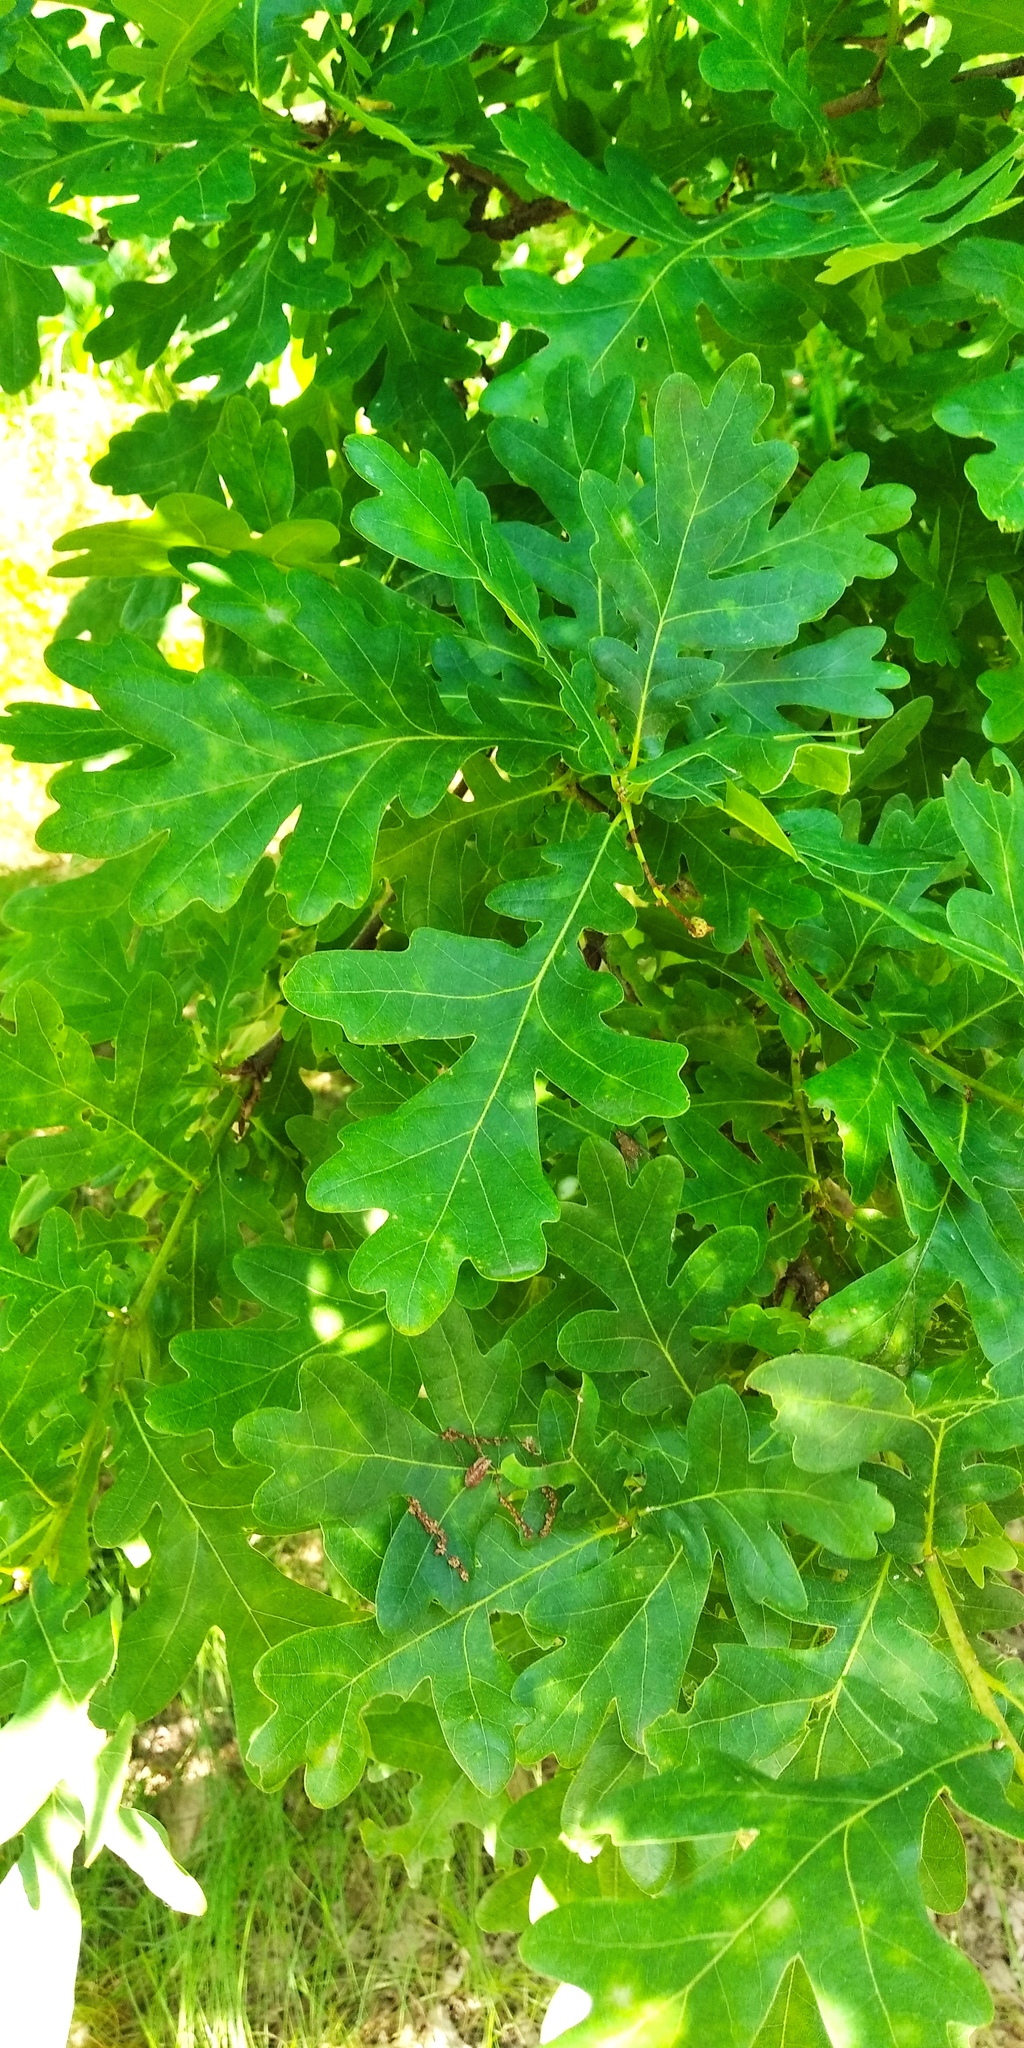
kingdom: Plantae
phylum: Tracheophyta
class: Magnoliopsida
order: Fagales
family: Fagaceae
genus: Quercus
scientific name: Quercus robur
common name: Pedunculate oak
